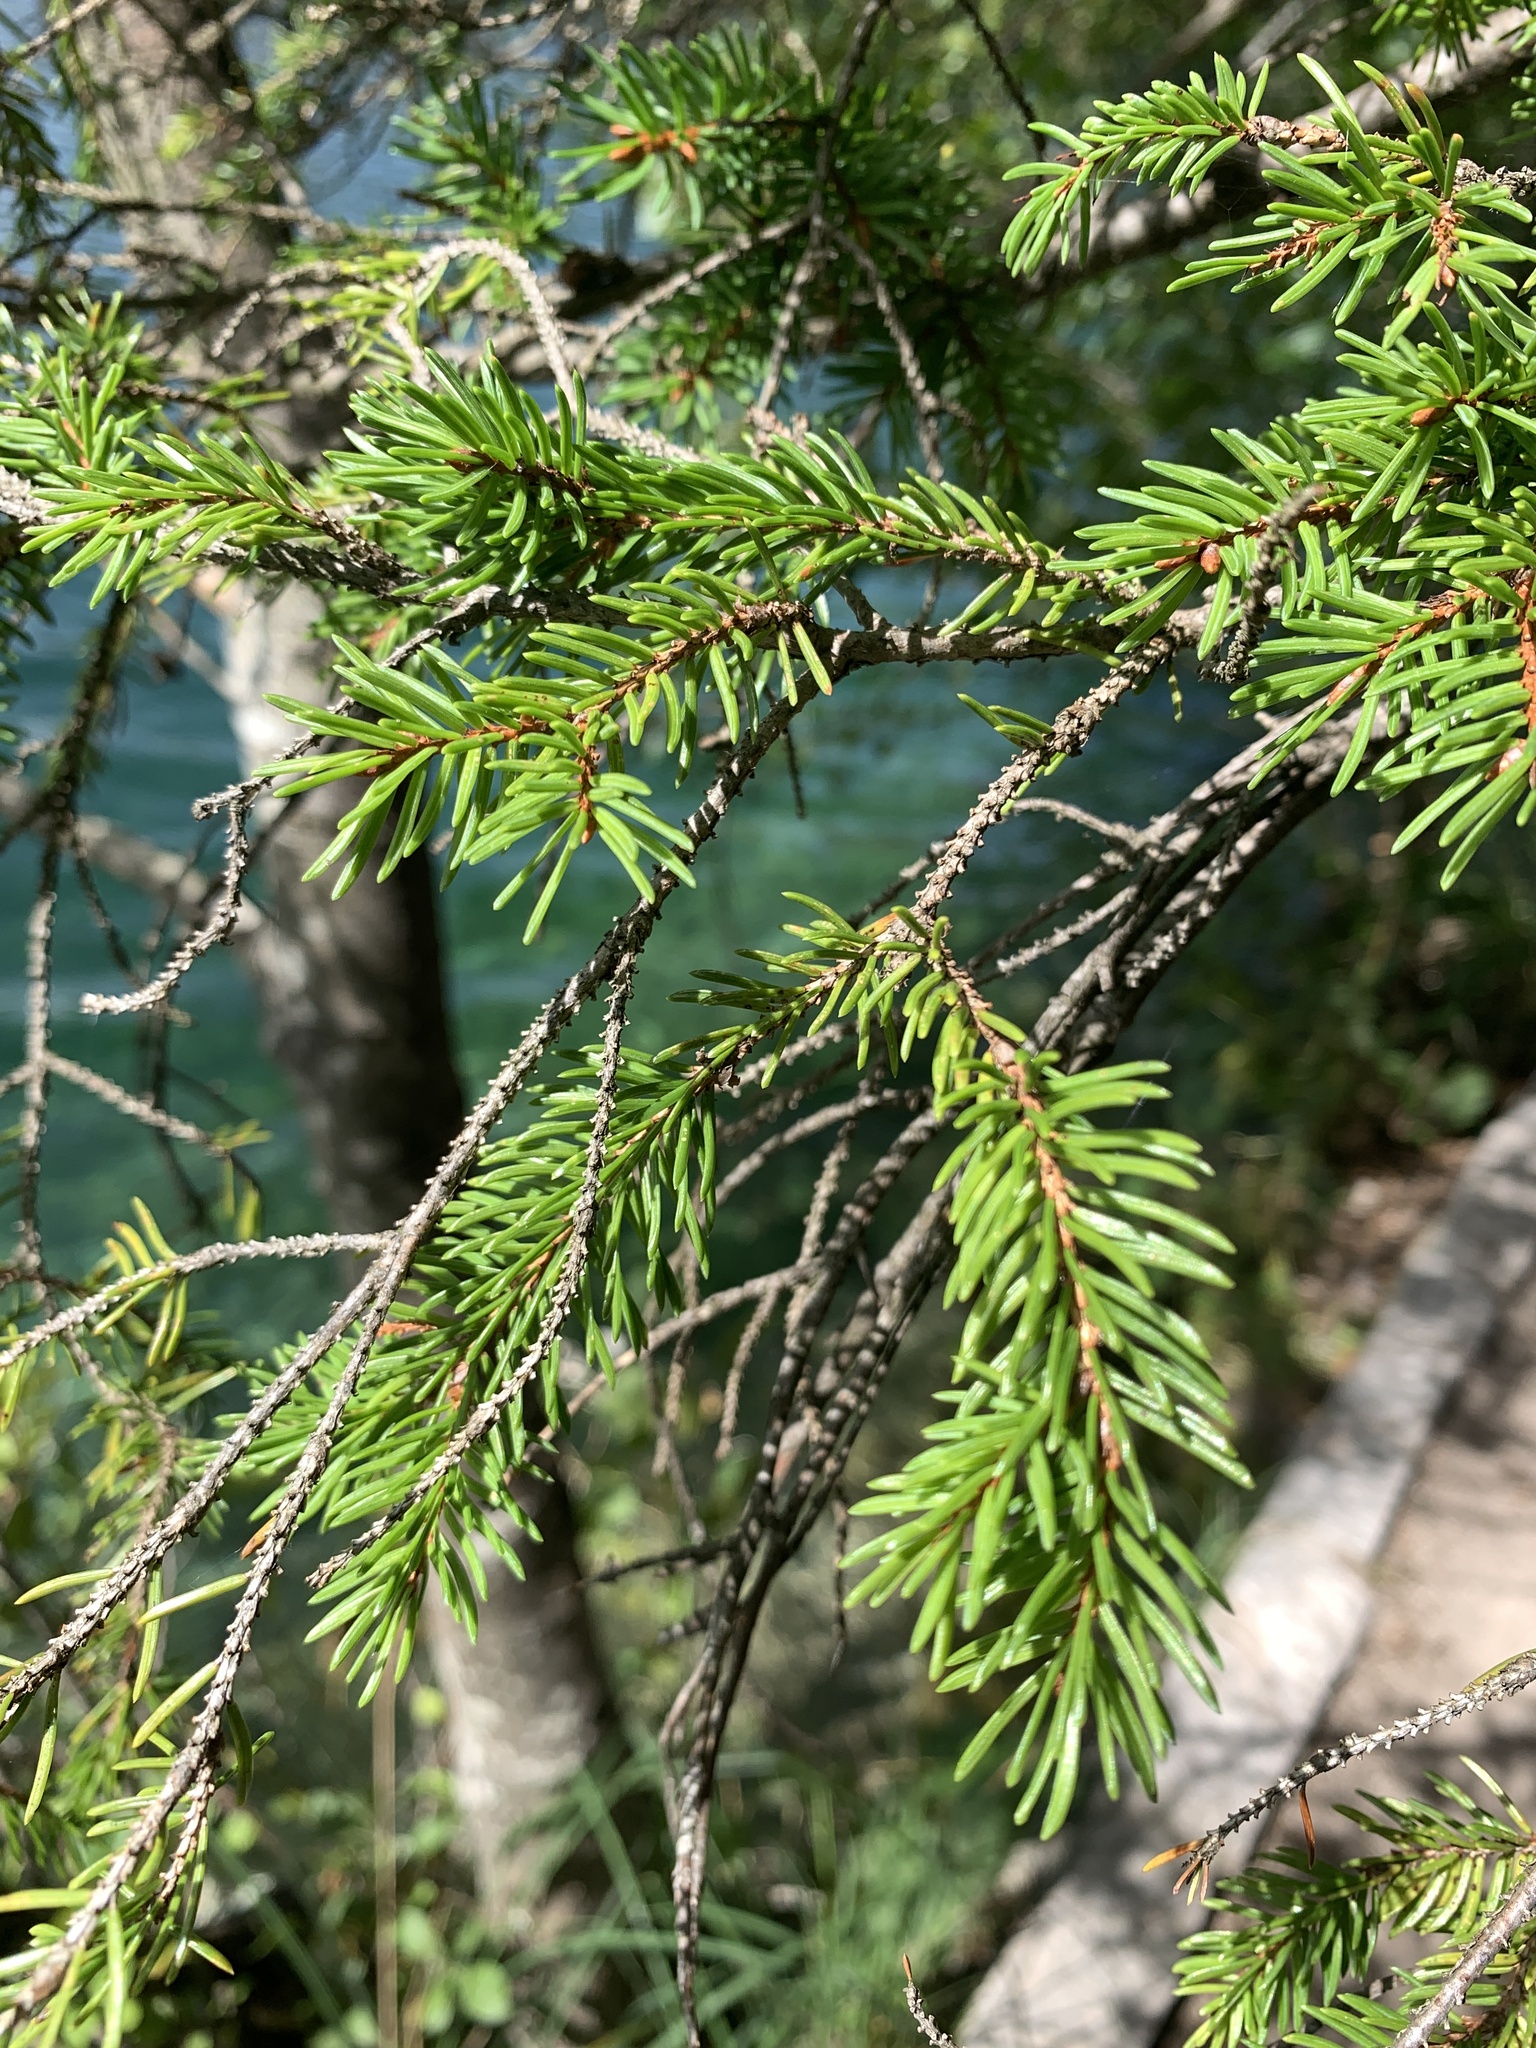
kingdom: Plantae
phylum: Tracheophyta
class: Pinopsida
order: Pinales
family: Pinaceae
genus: Picea
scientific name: Picea abies
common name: Norway spruce
